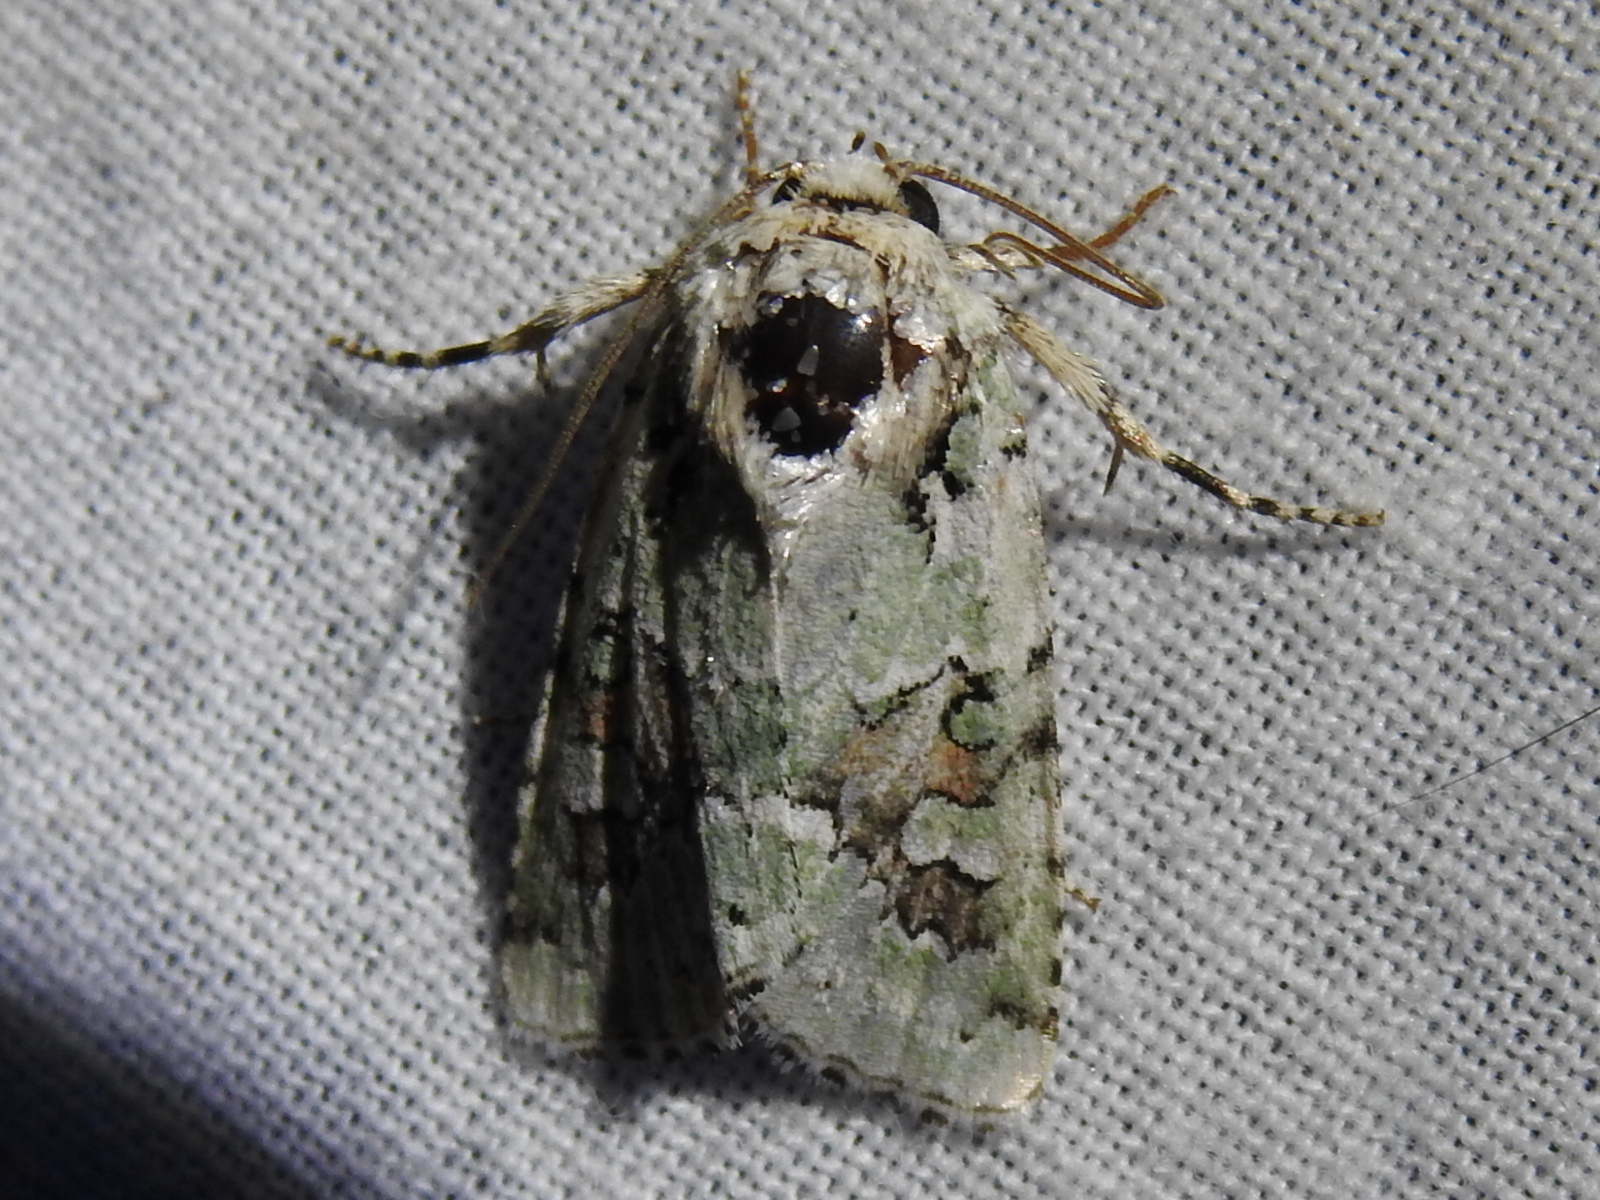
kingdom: Animalia
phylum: Arthropoda
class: Insecta
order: Lepidoptera
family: Noctuidae
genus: Lacinipolia
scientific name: Lacinipolia laudabilis
